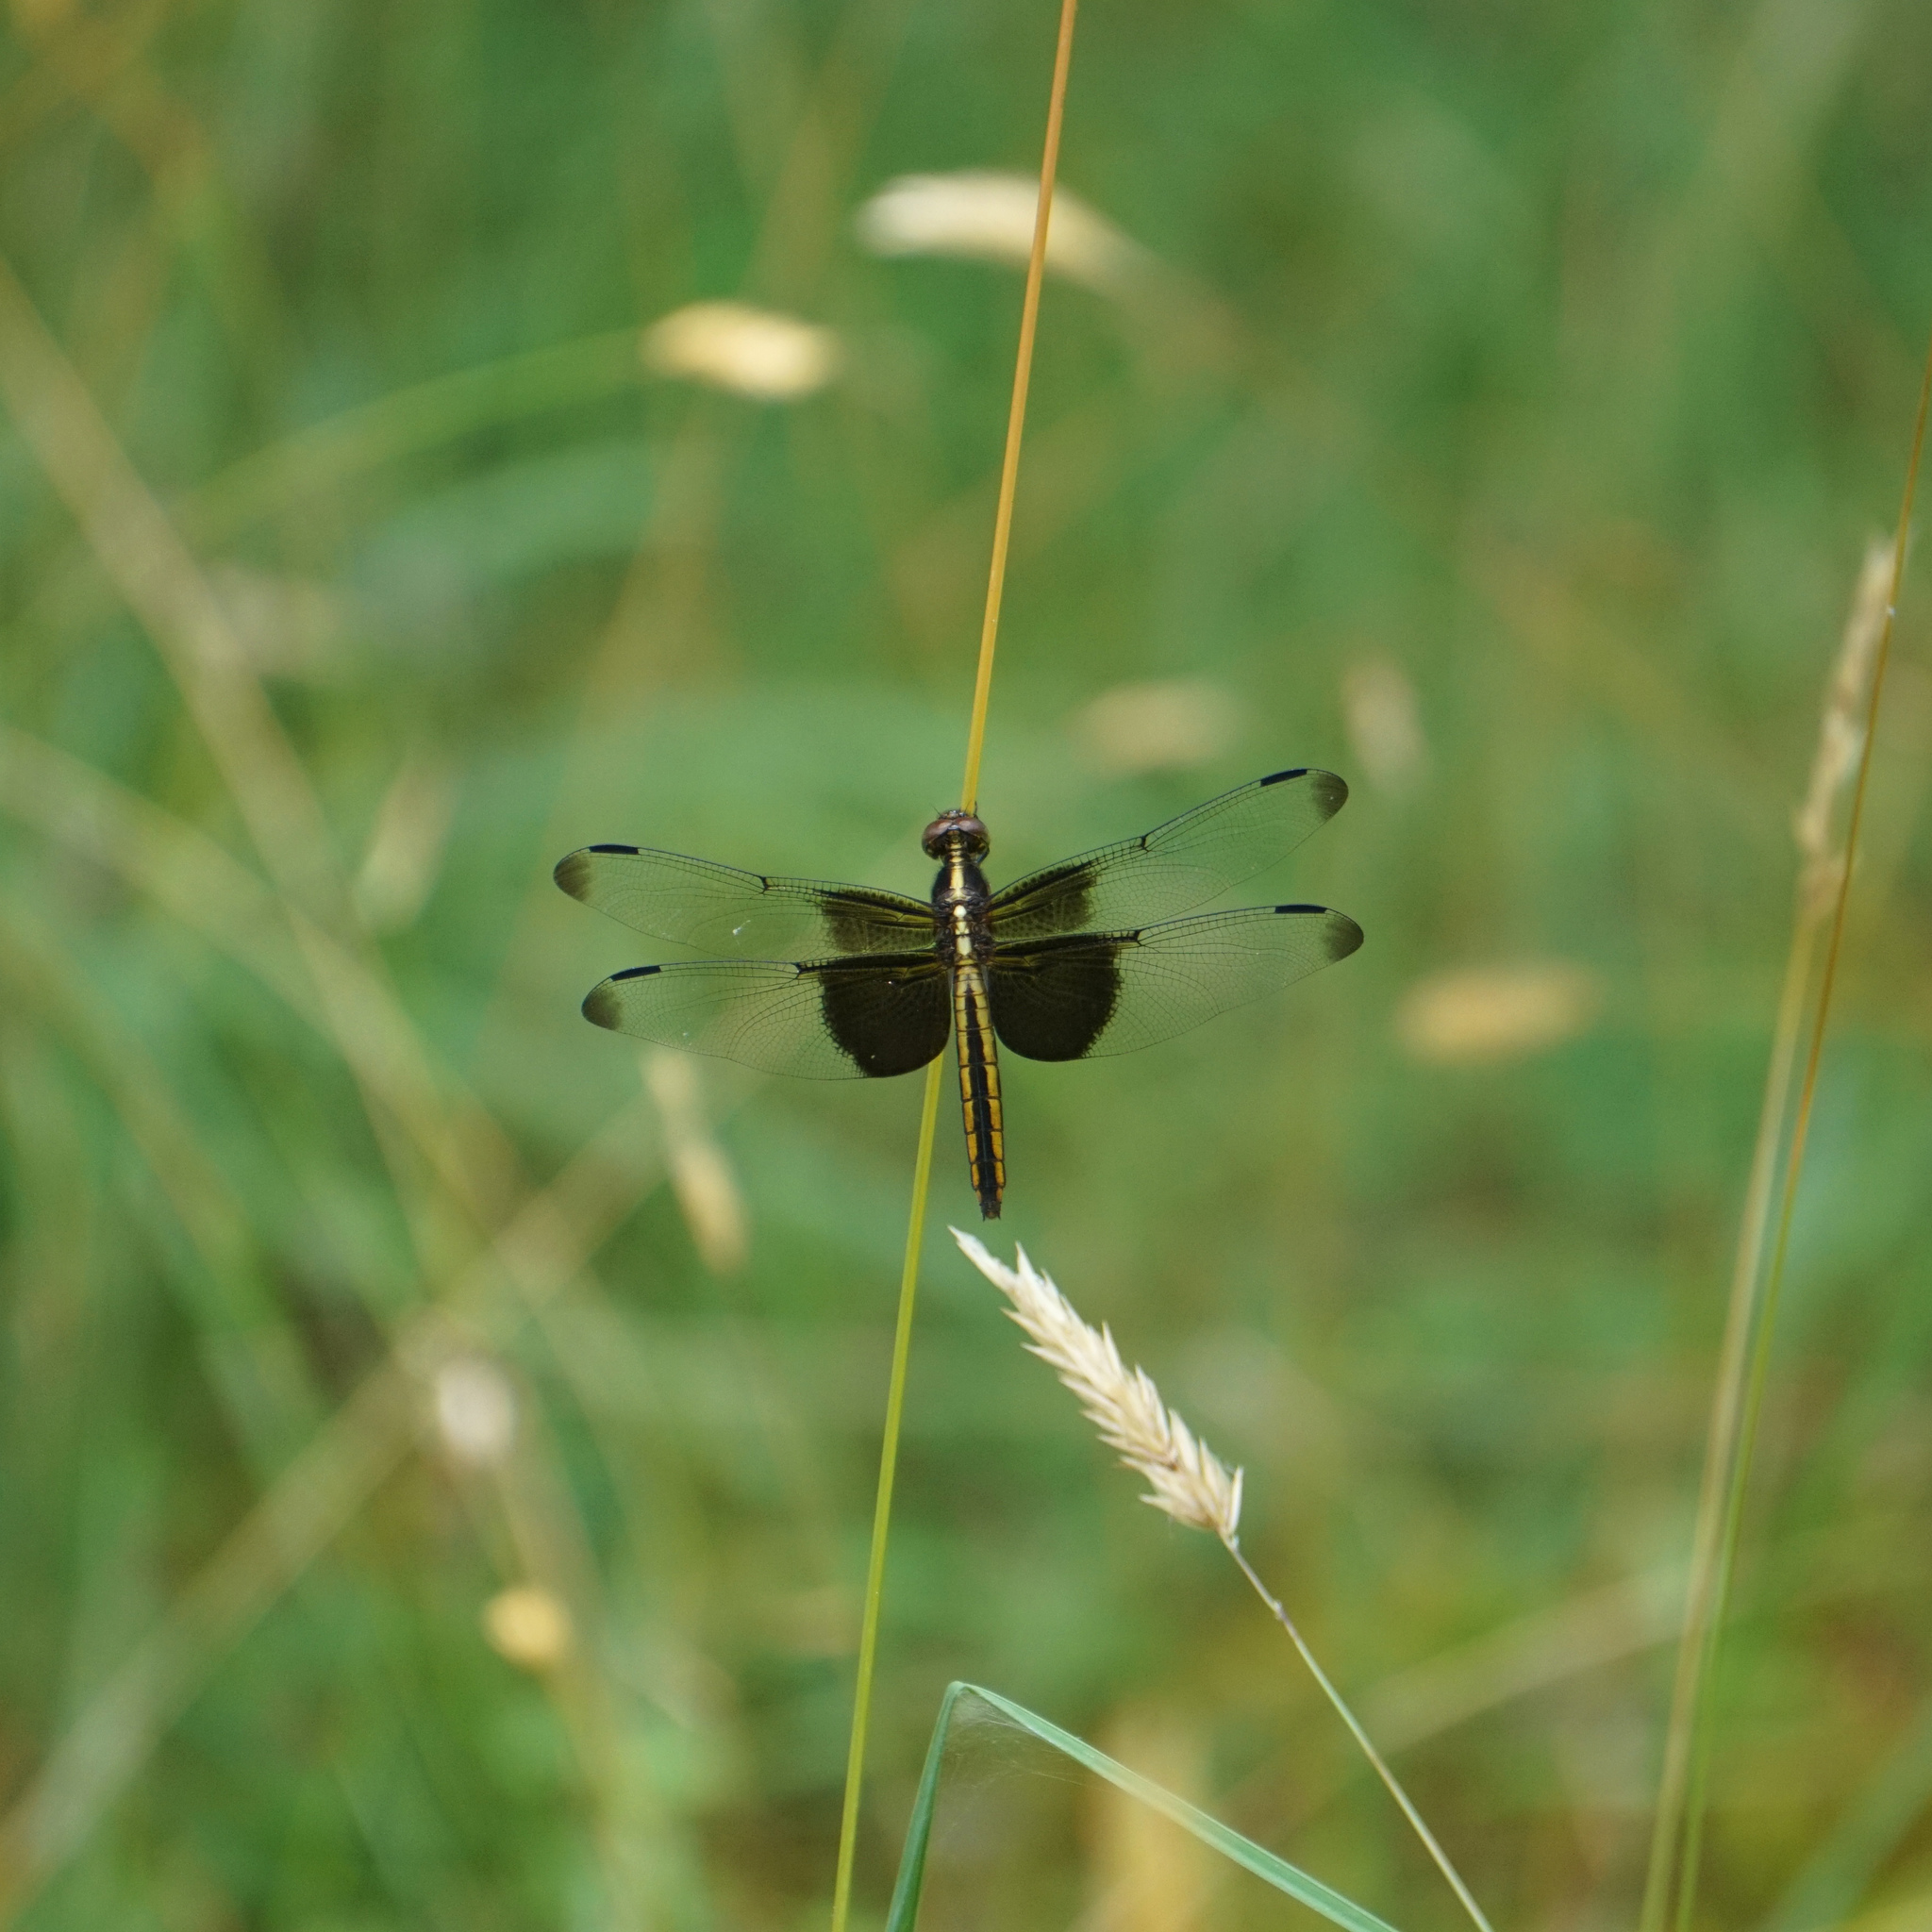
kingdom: Animalia
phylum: Arthropoda
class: Insecta
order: Odonata
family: Libellulidae
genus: Libellula
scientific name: Libellula luctuosa
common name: Widow skimmer
